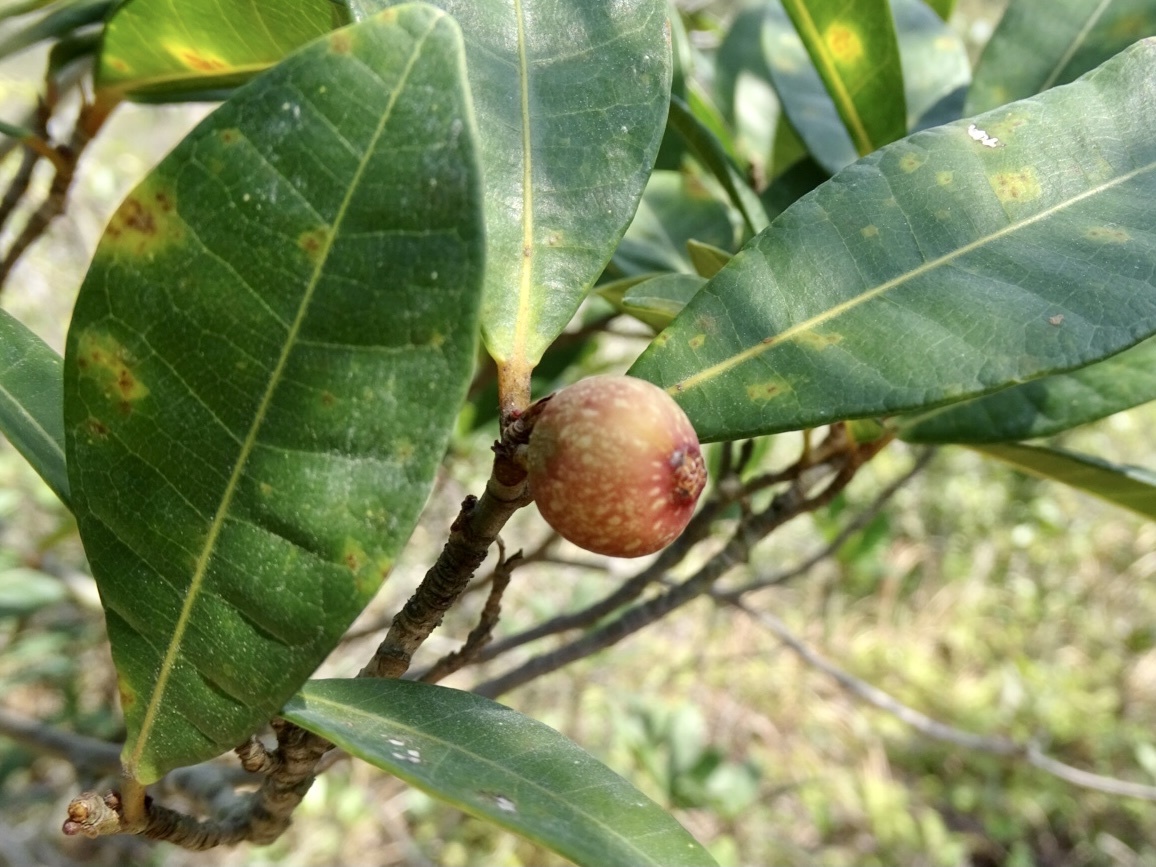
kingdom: Plantae
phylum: Tracheophyta
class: Magnoliopsida
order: Rosales
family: Moraceae
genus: Ficus
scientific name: Ficus variolosa
